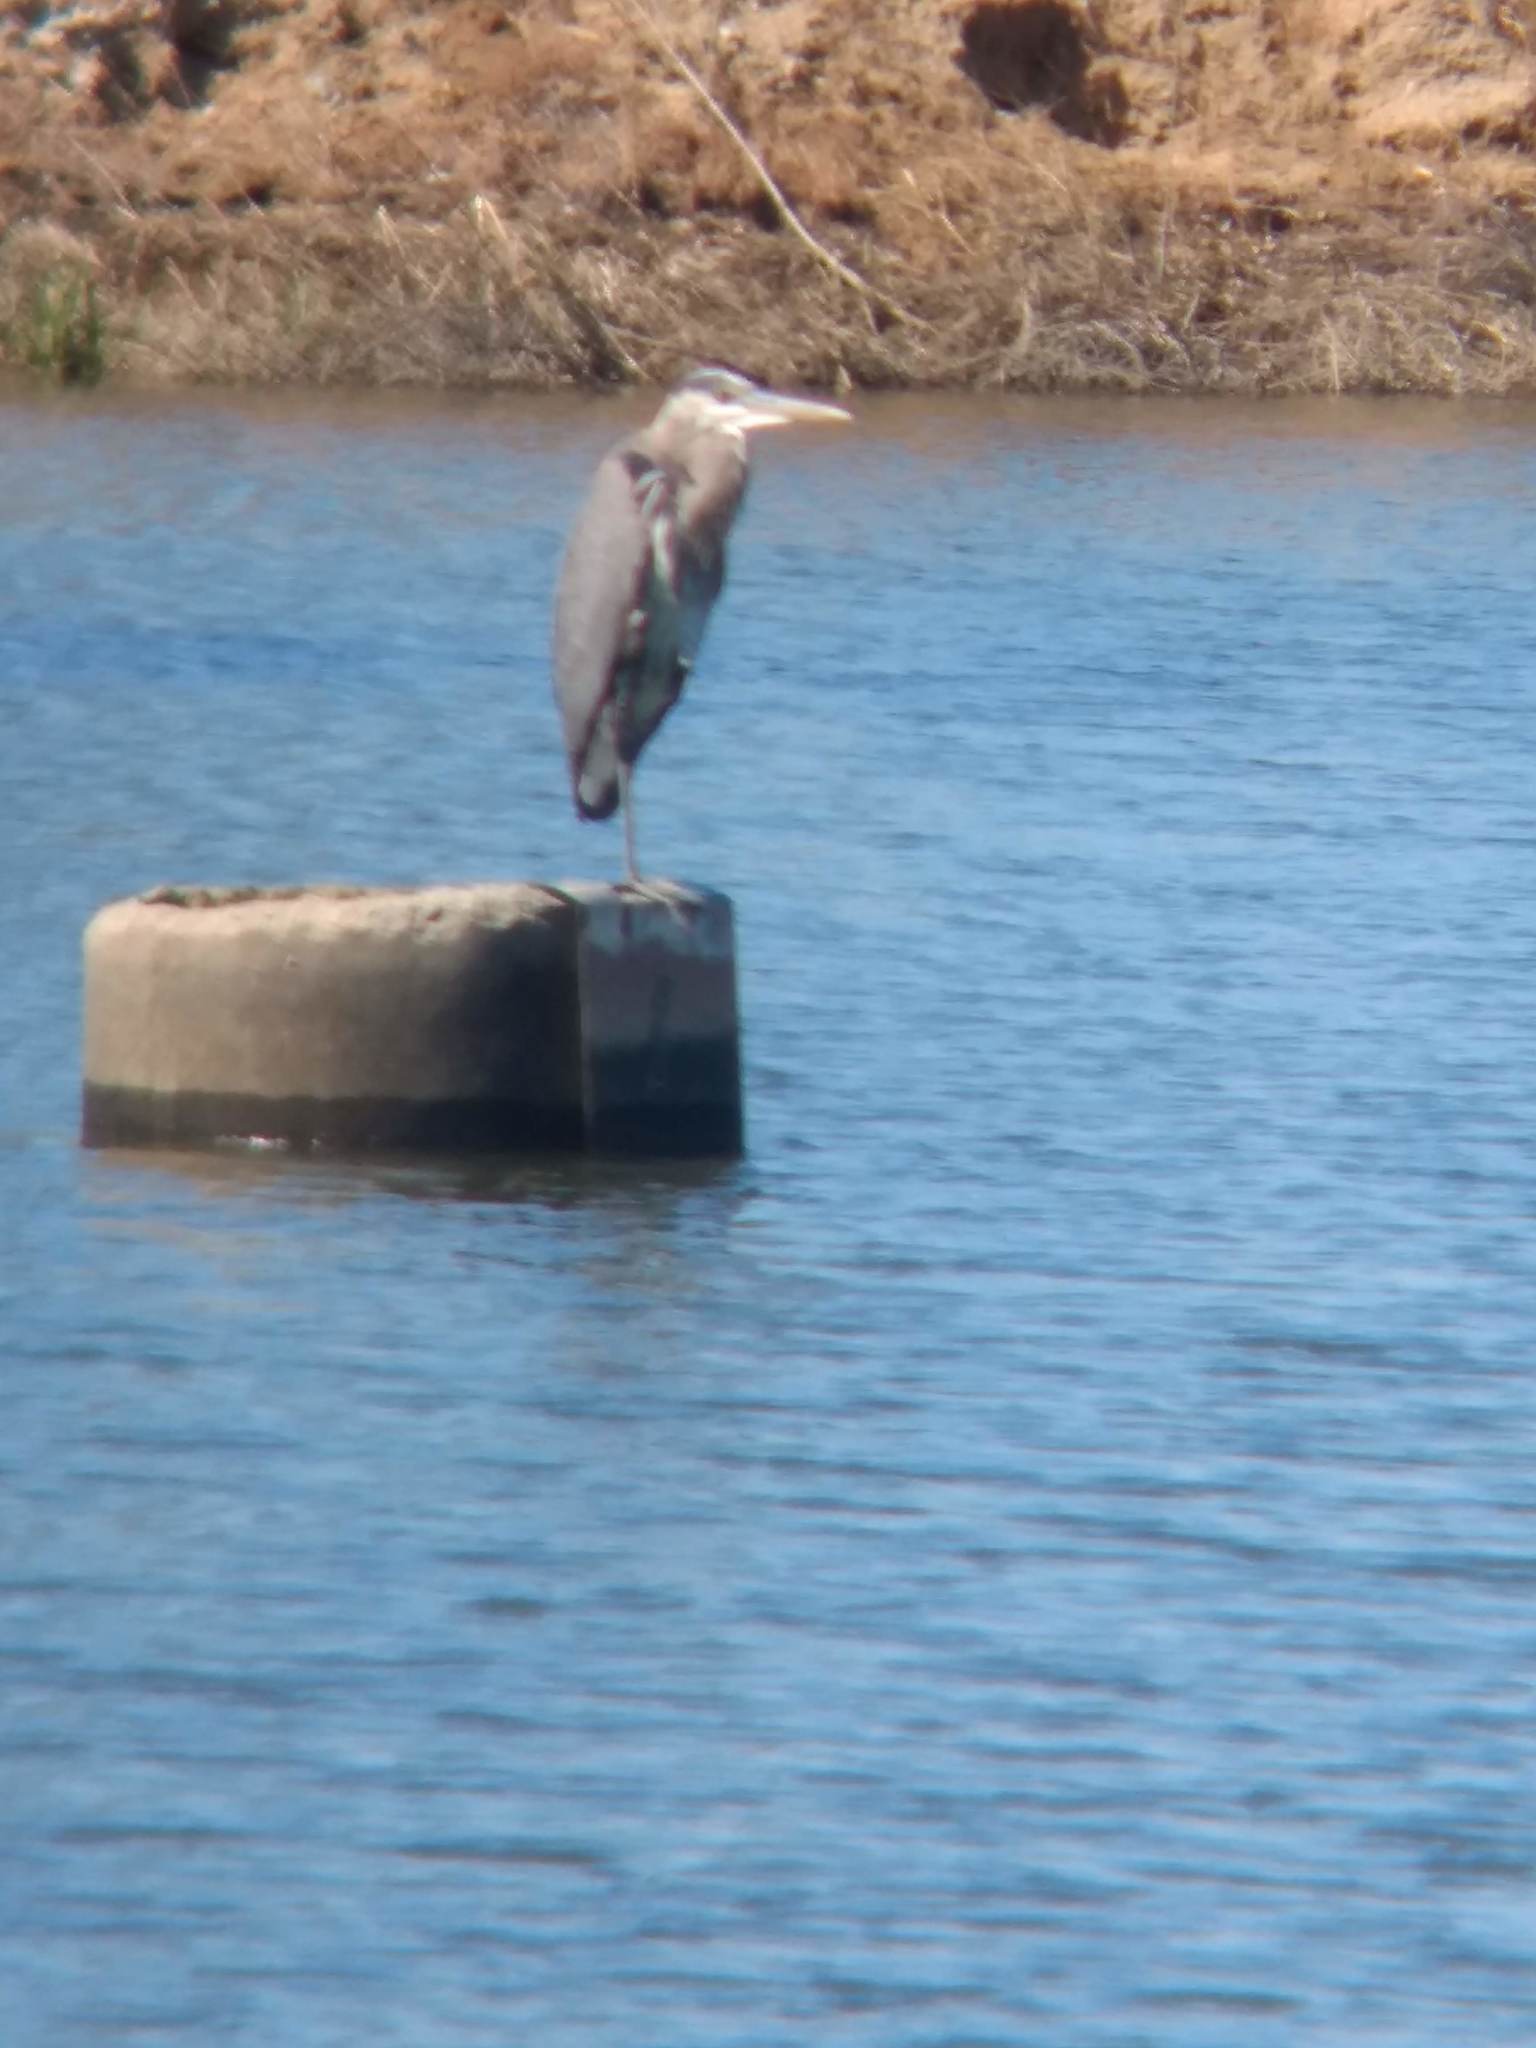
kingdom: Animalia
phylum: Chordata
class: Aves
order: Pelecaniformes
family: Ardeidae
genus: Ardea
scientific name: Ardea herodias
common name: Great blue heron
